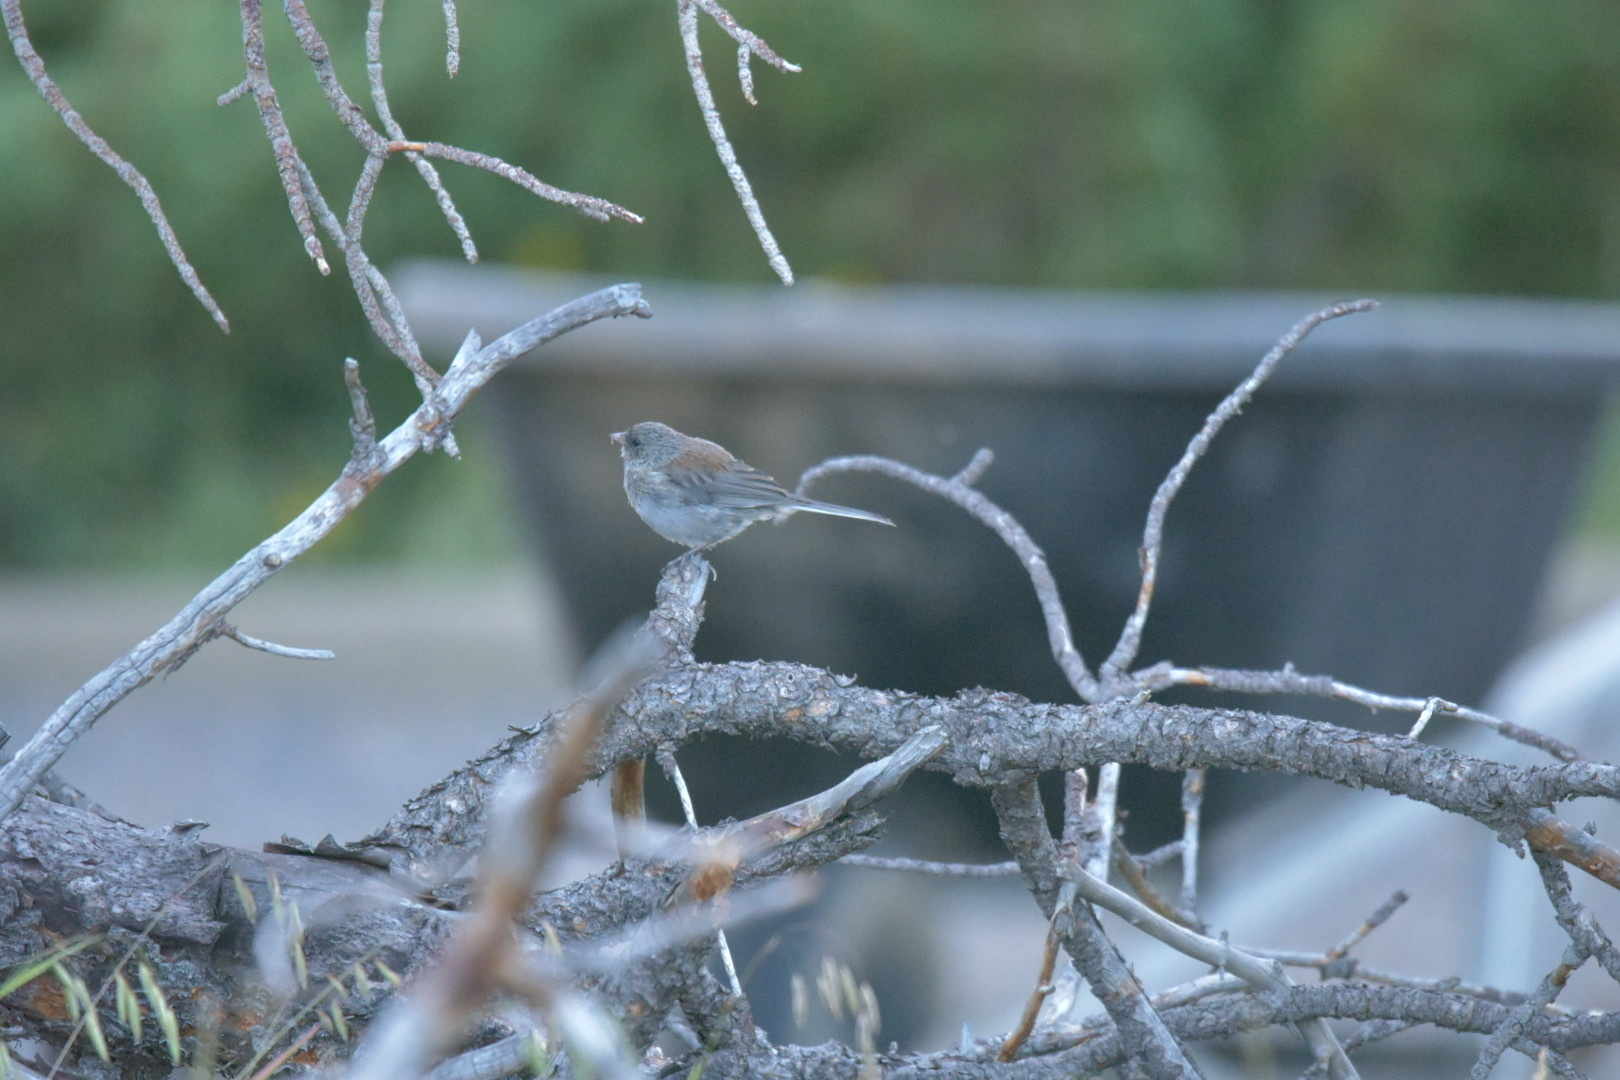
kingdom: Animalia
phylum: Chordata
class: Aves
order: Passeriformes
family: Passerellidae
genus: Junco
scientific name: Junco hyemalis
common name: Dark-eyed junco
